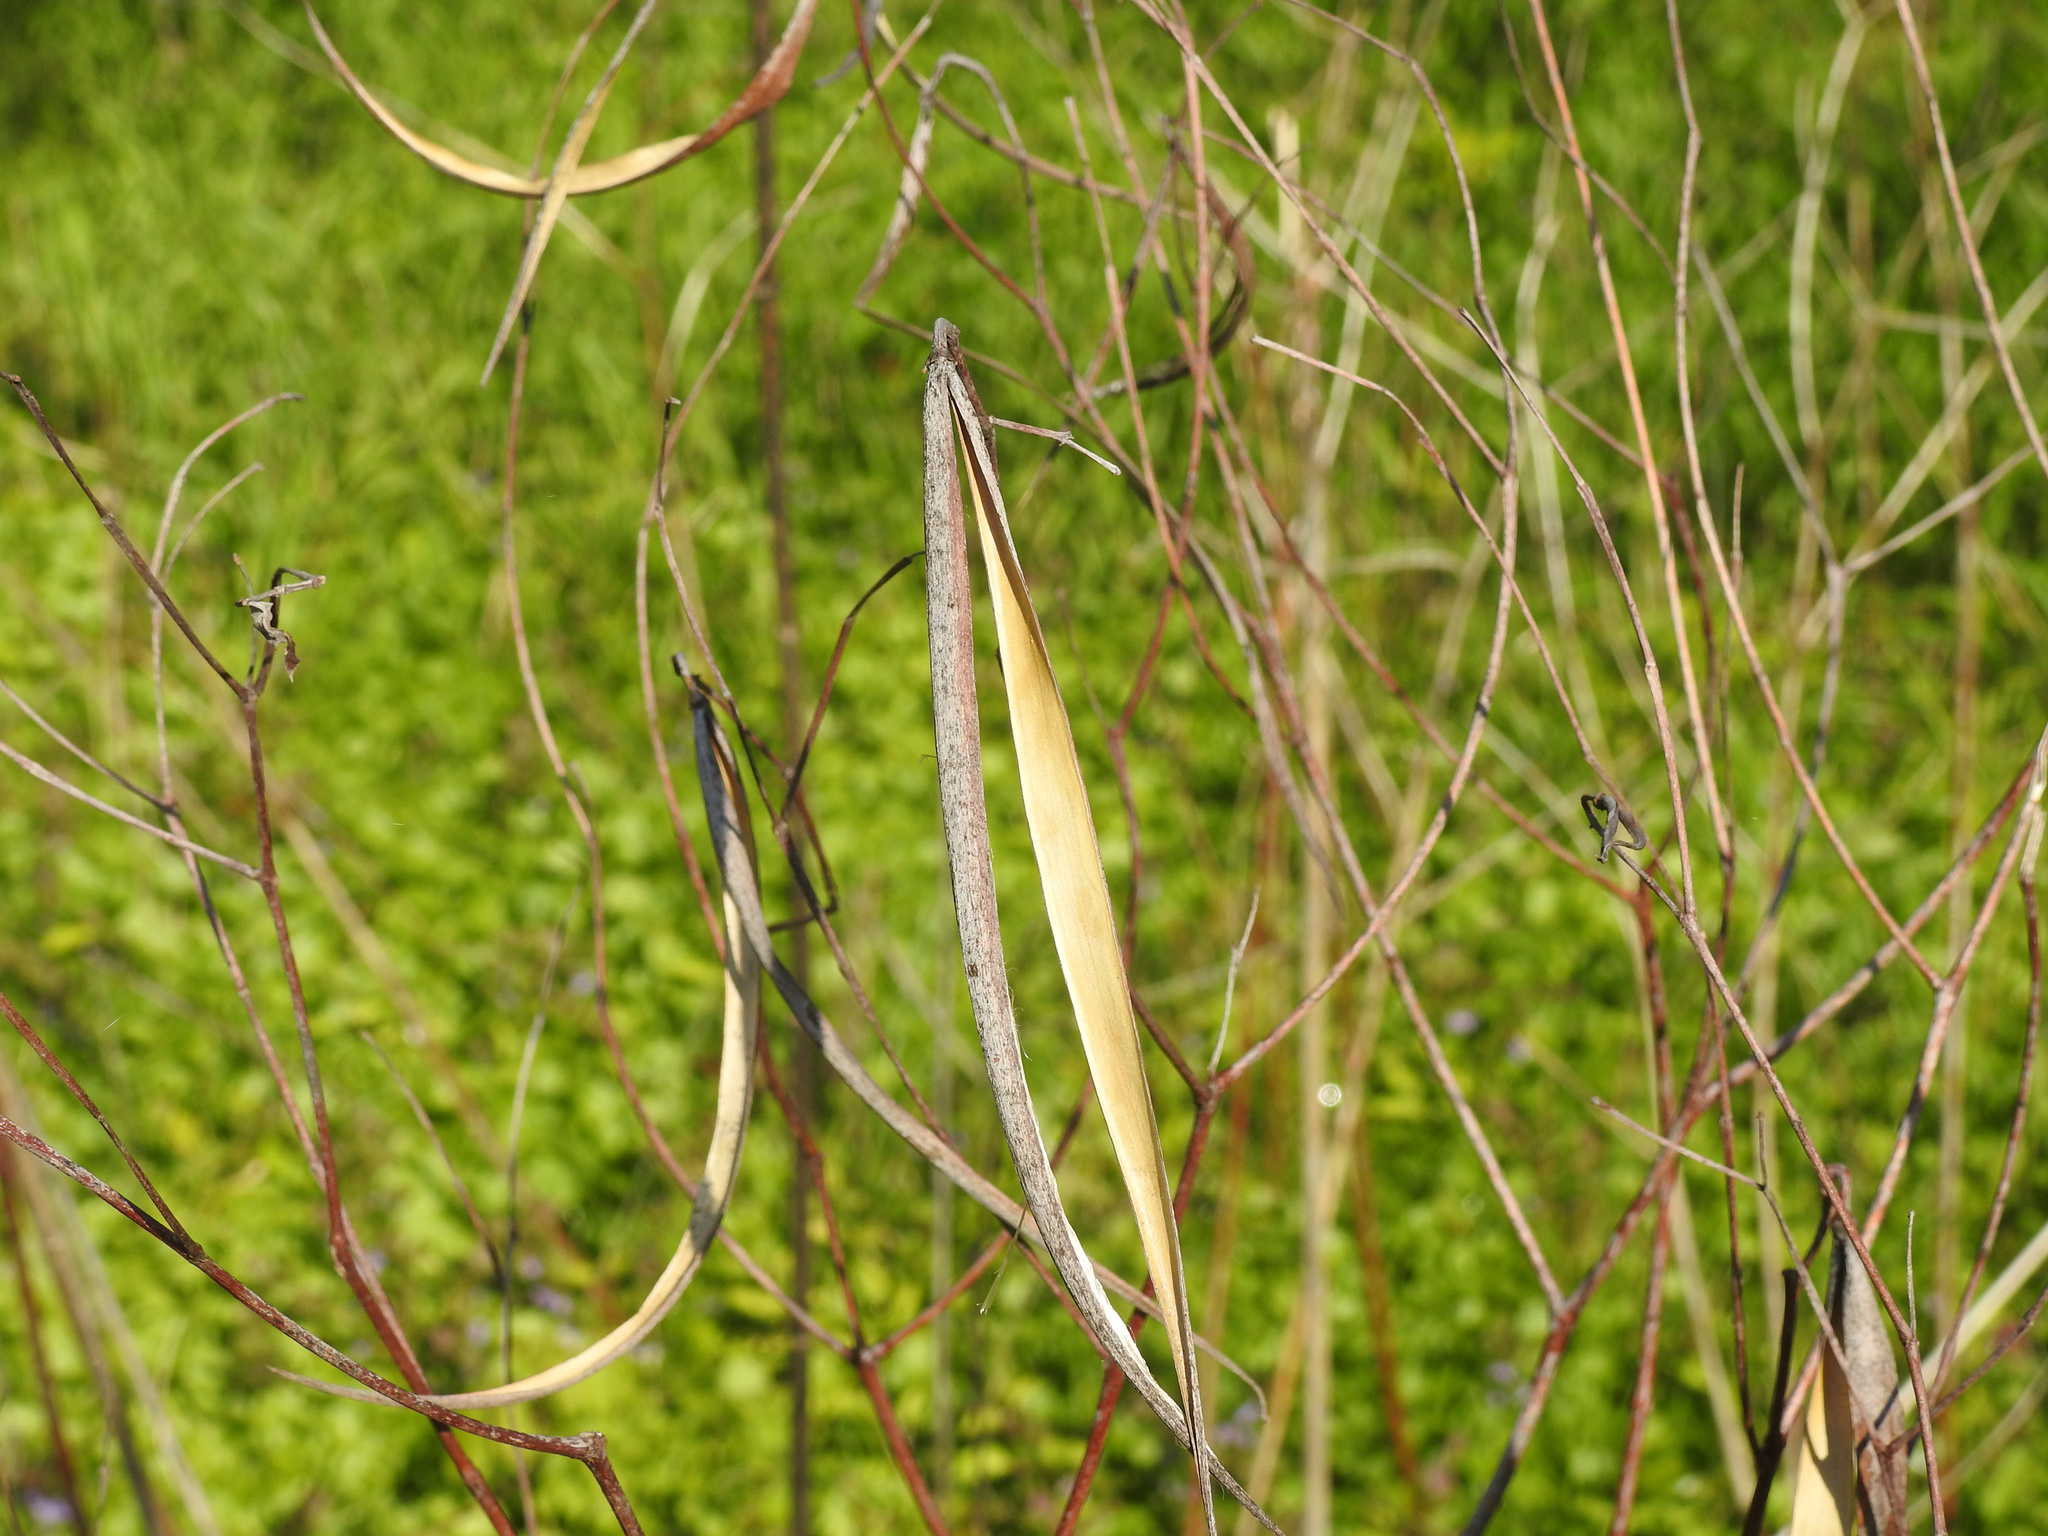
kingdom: Plantae
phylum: Tracheophyta
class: Magnoliopsida
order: Gentianales
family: Apocynaceae
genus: Apocynum
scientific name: Apocynum cannabinum
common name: Hemp dogbane
